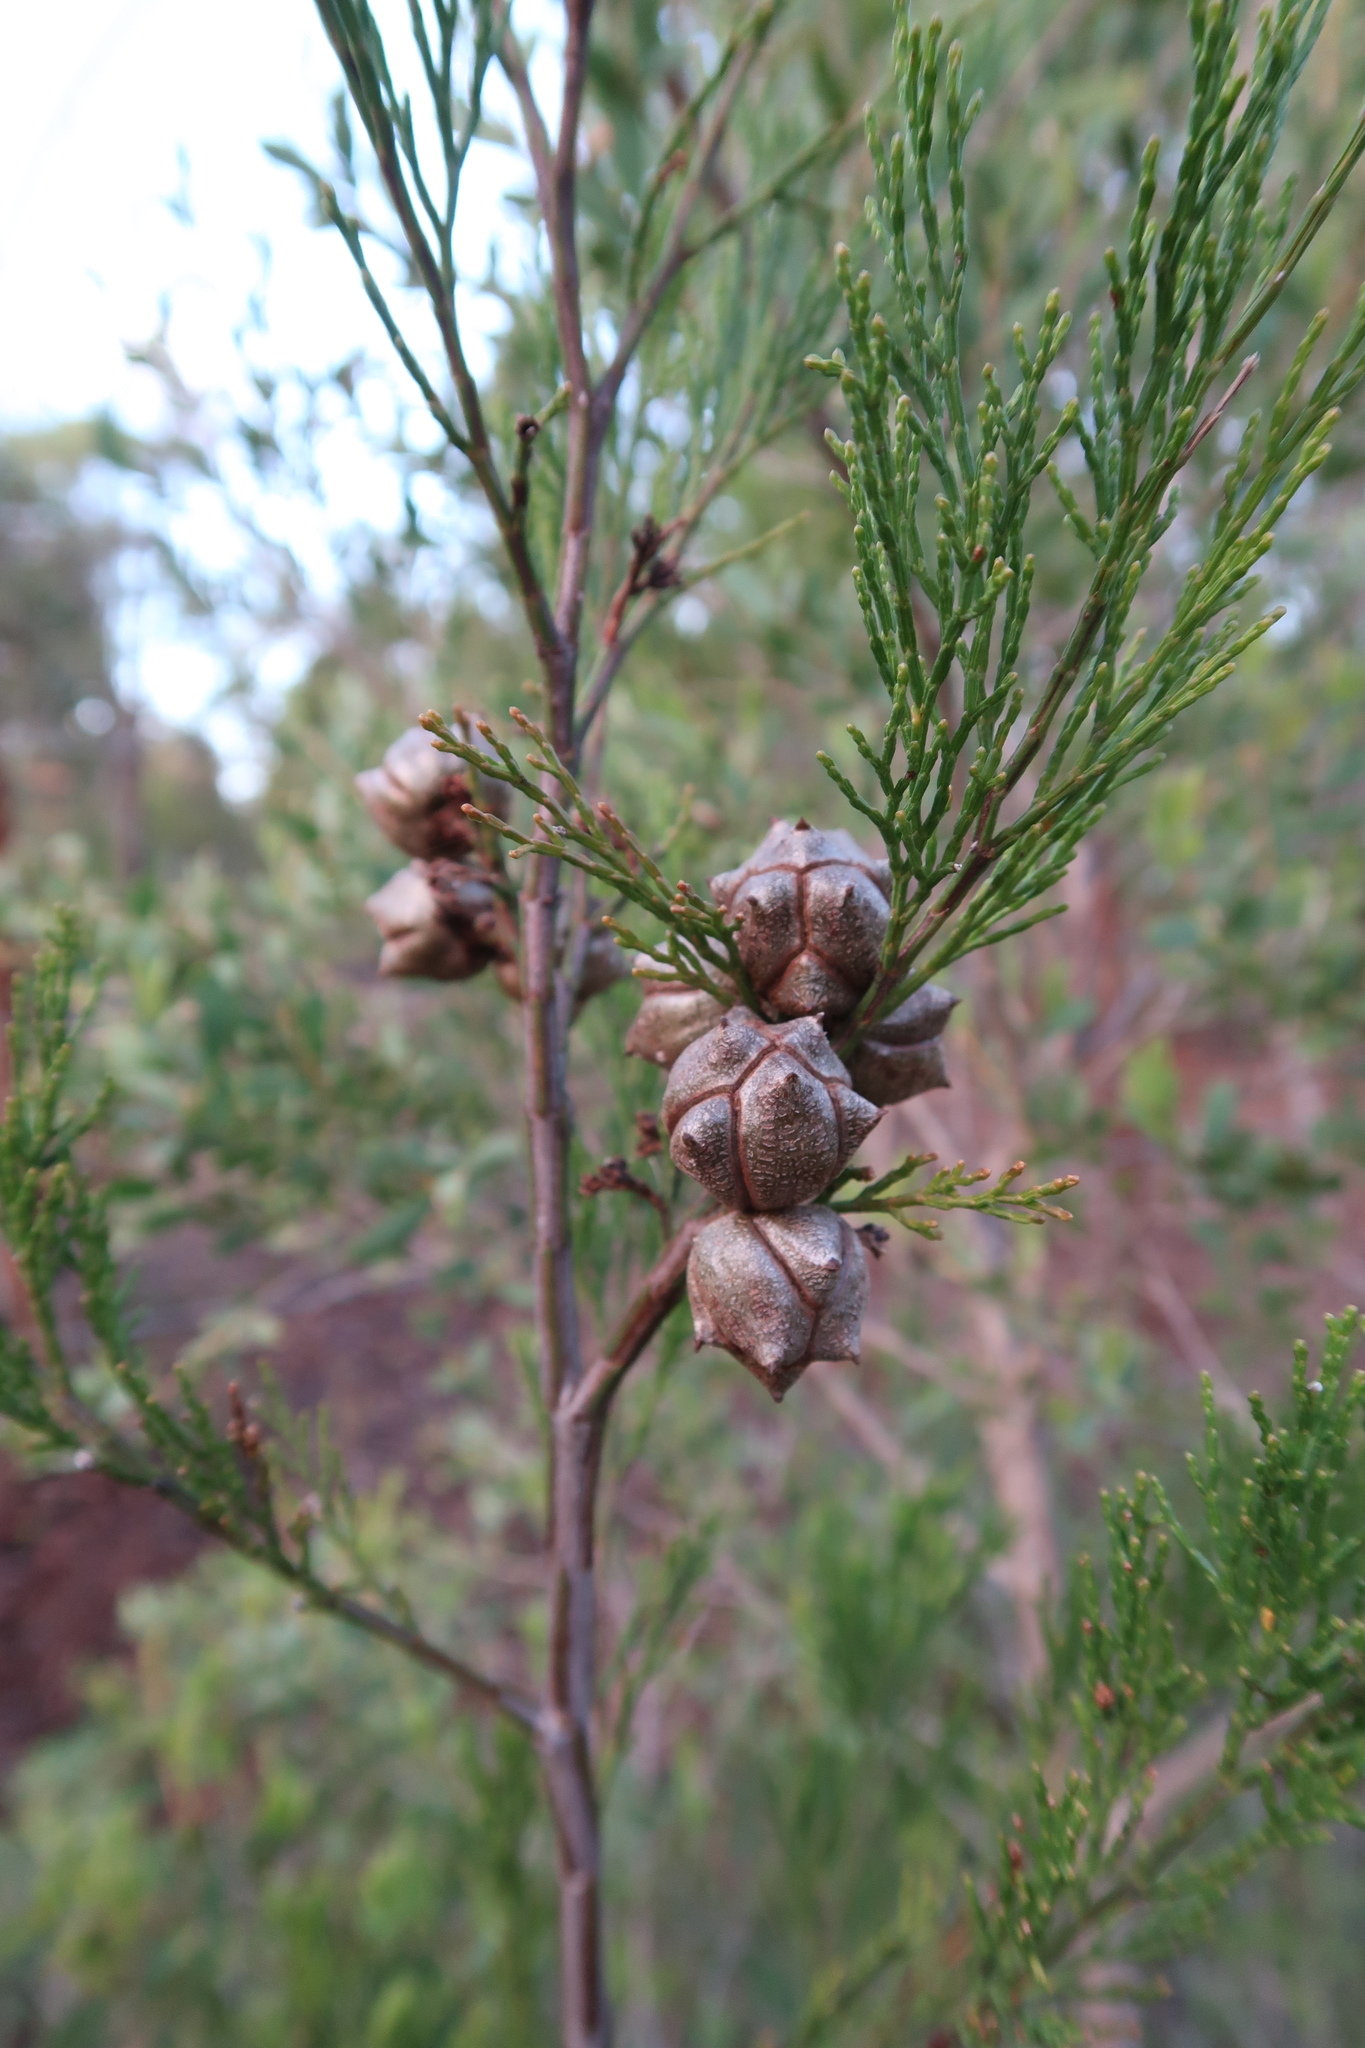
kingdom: Plantae
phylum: Tracheophyta
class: Pinopsida
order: Pinales
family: Cupressaceae
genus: Callitris
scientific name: Callitris rhomboidea
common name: Illawara mountain pine
